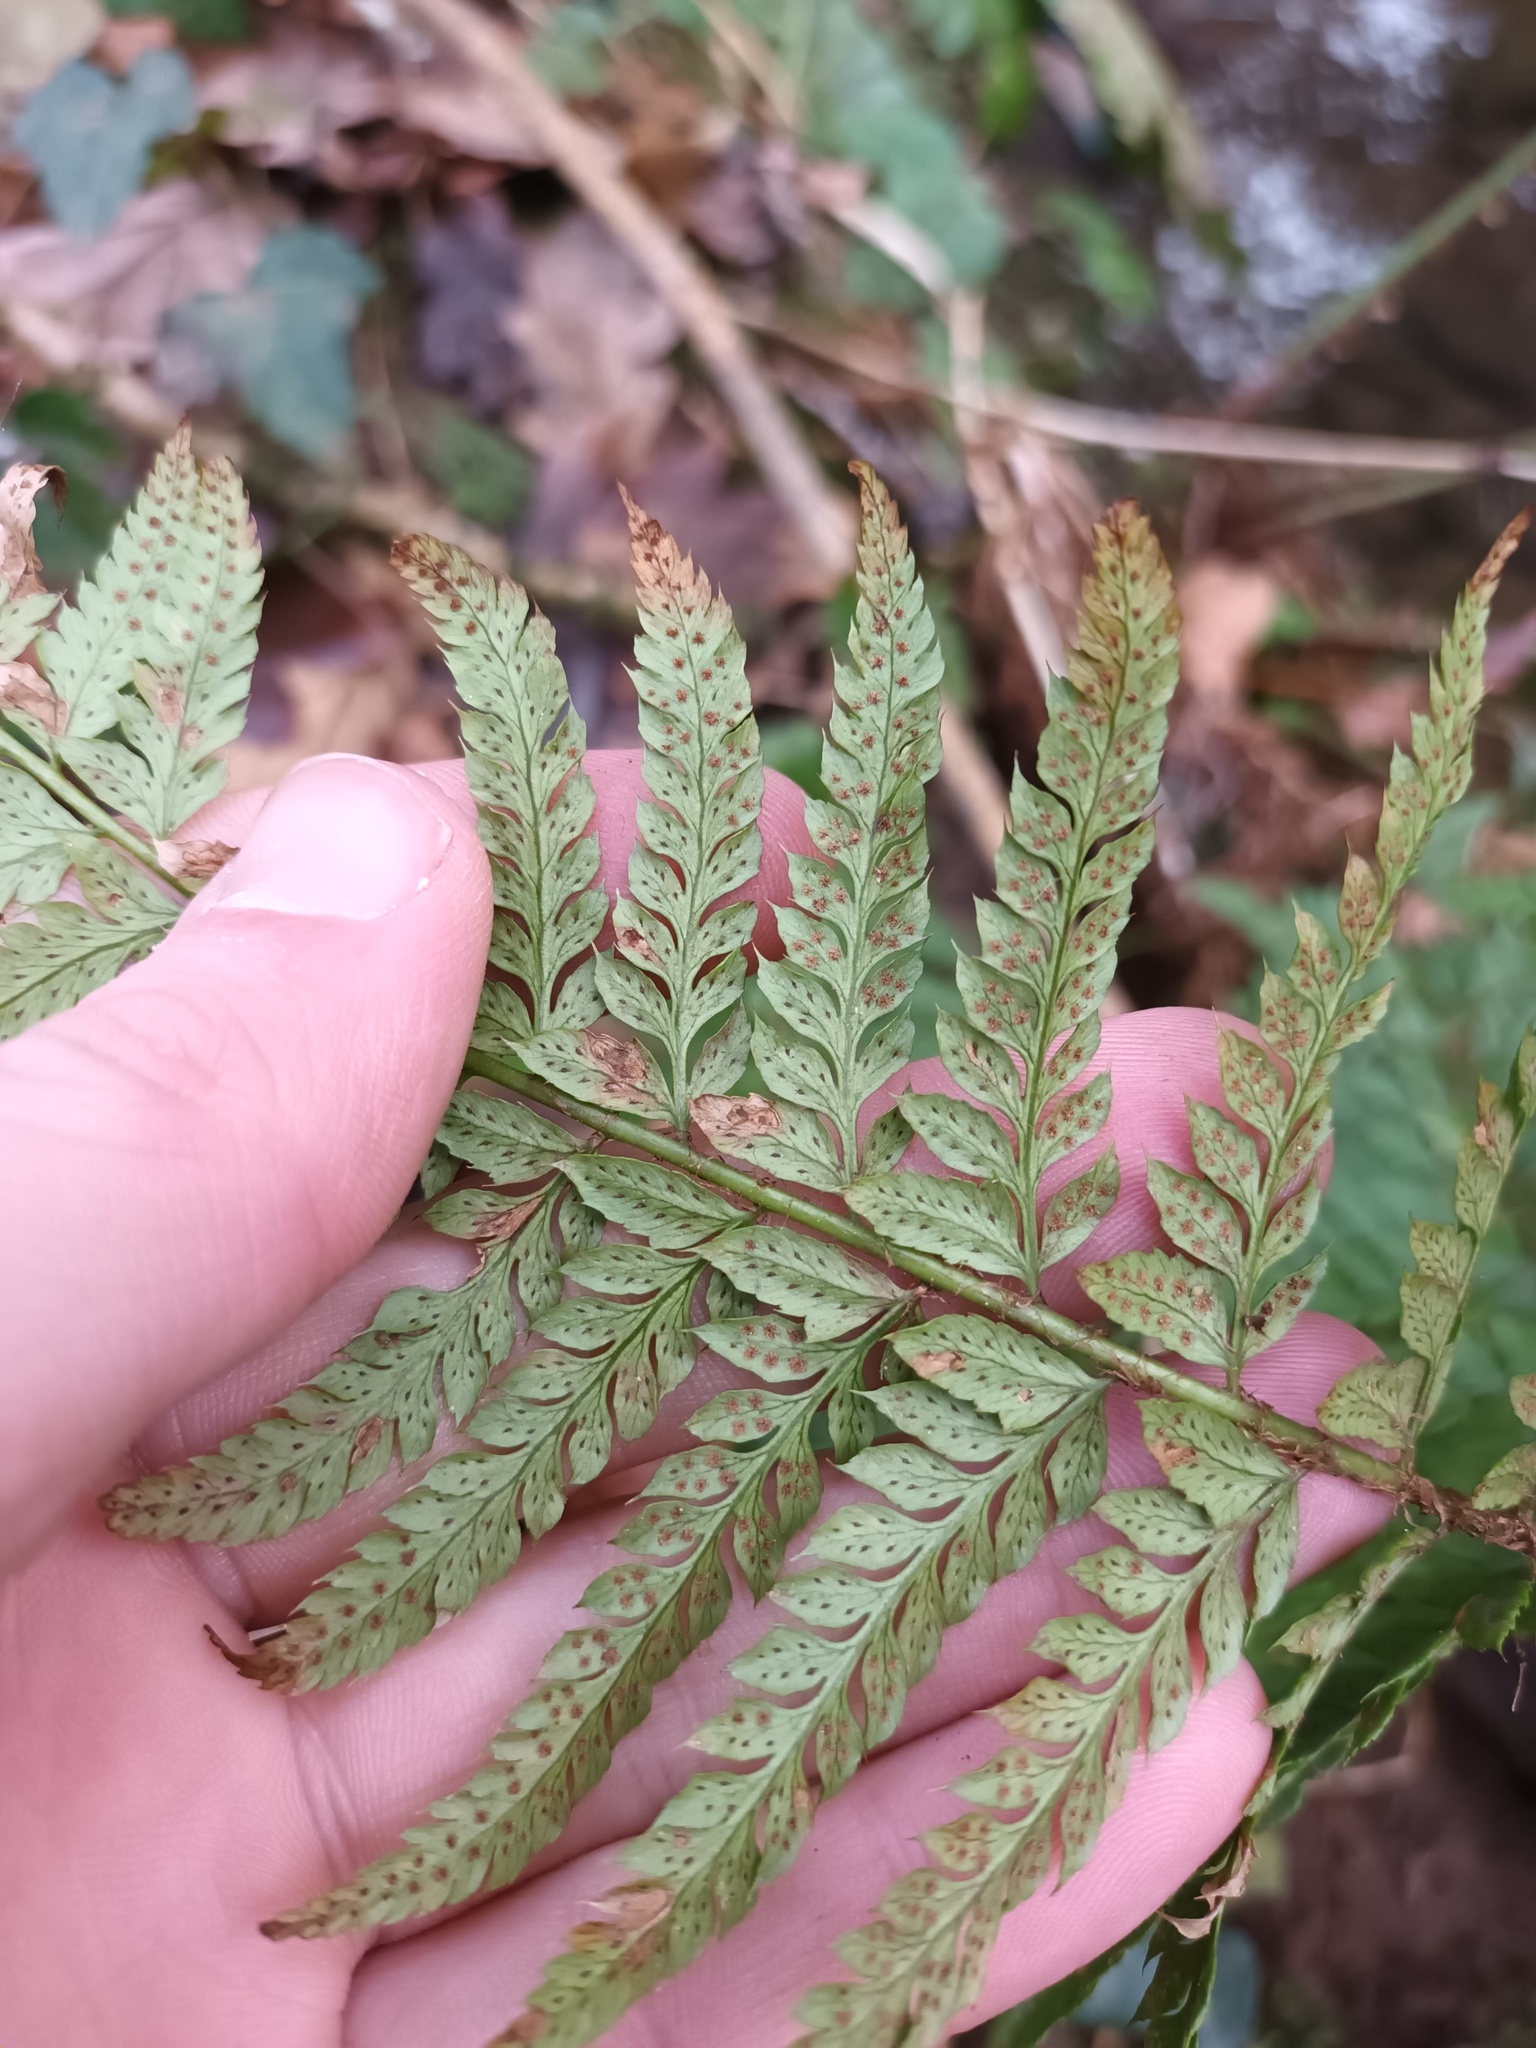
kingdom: Plantae
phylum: Tracheophyta
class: Polypodiopsida
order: Polypodiales
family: Dryopteridaceae
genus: Polystichum
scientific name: Polystichum aculeatum
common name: Hard shield-fern
